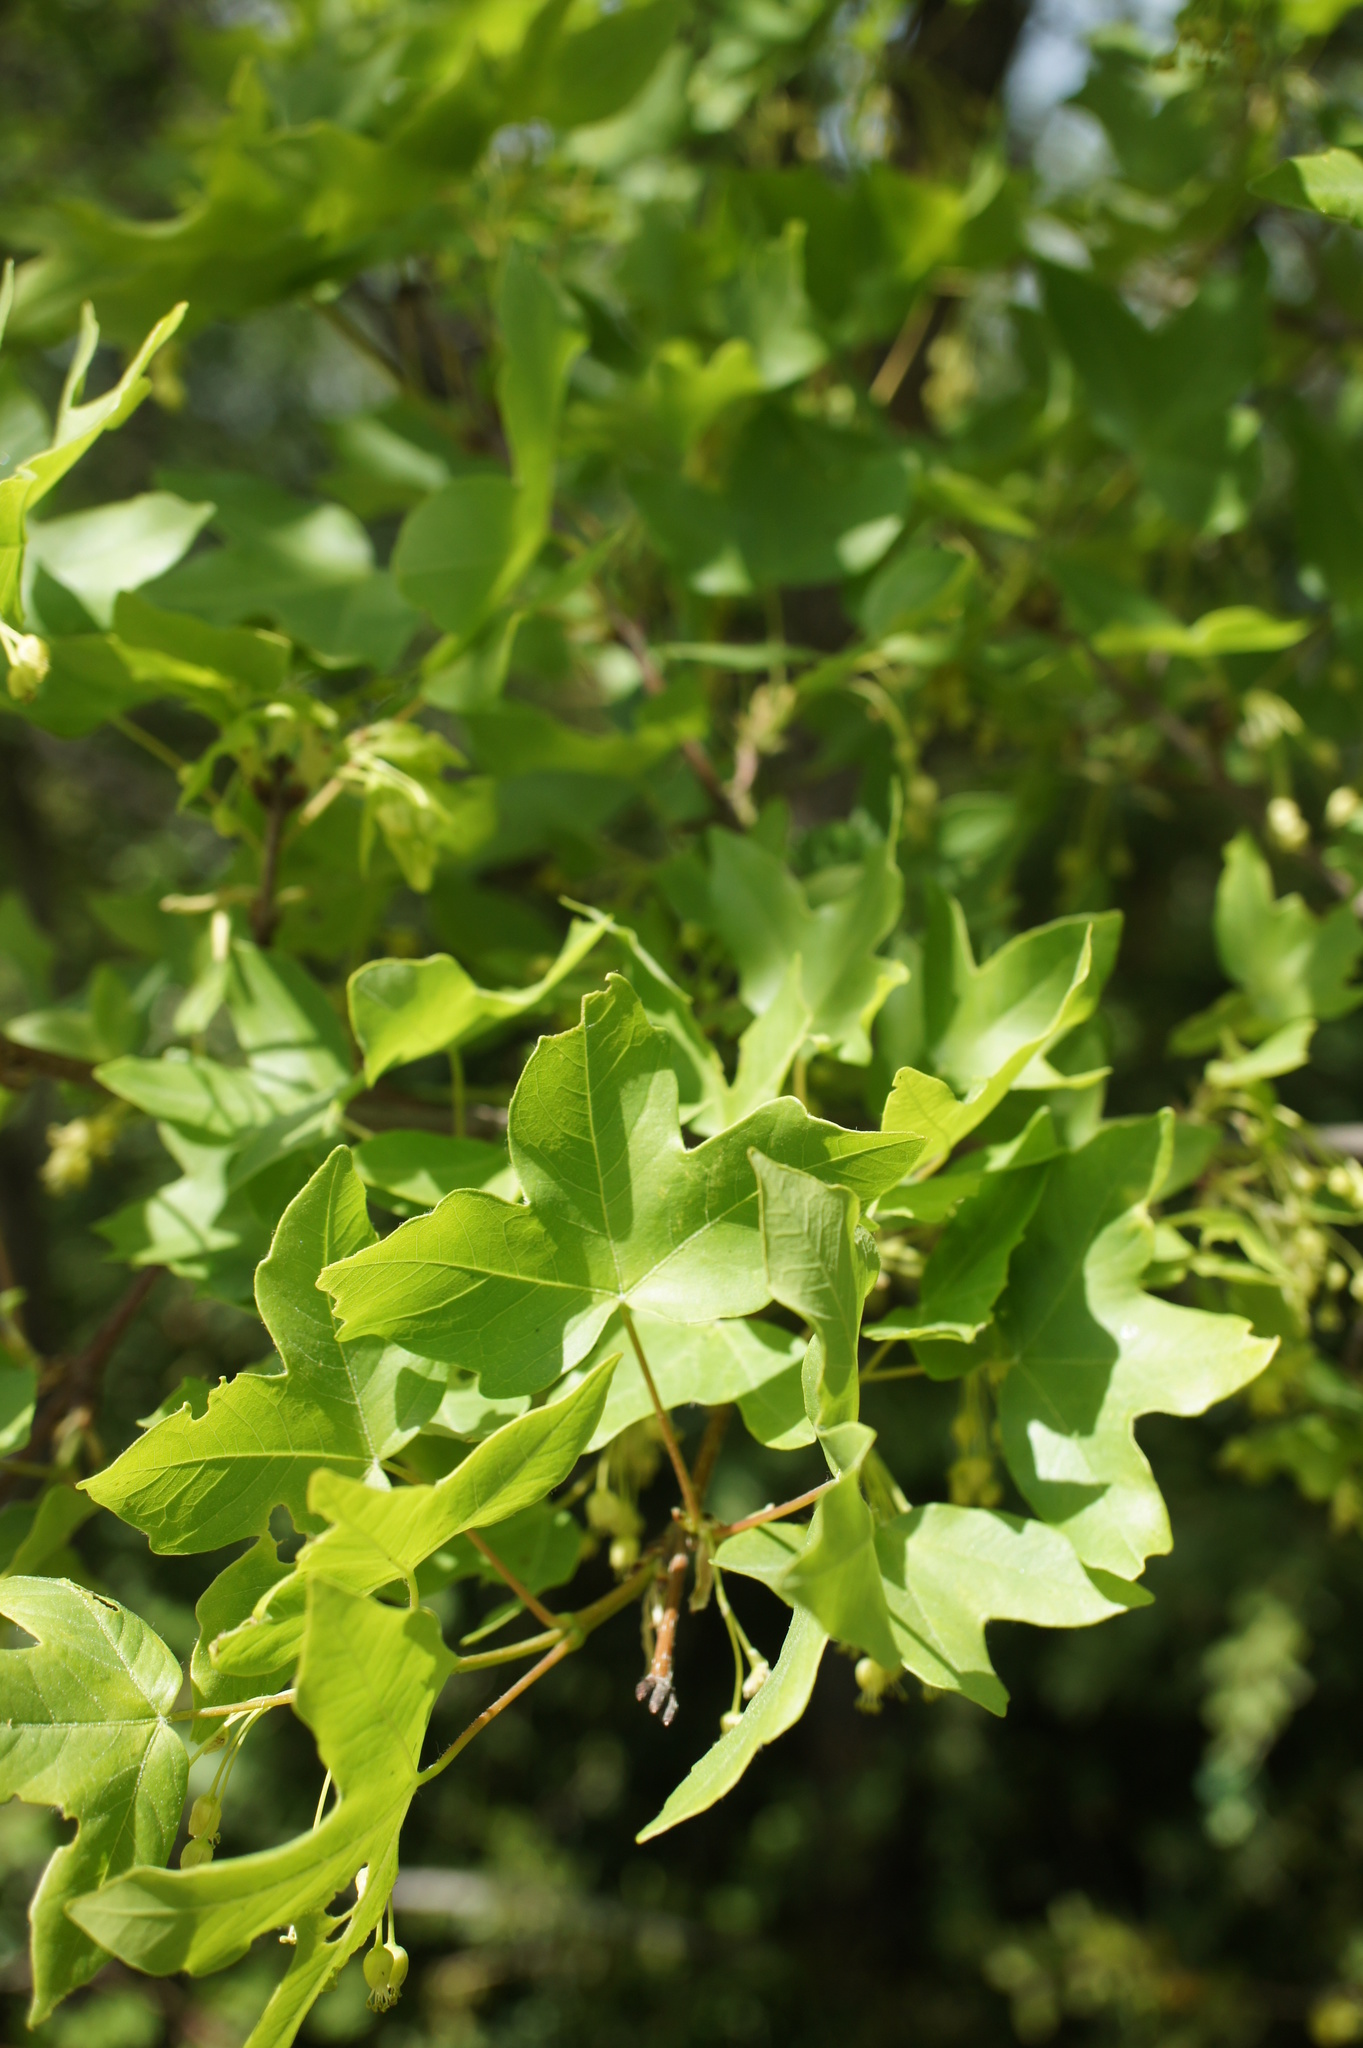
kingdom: Plantae
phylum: Tracheophyta
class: Magnoliopsida
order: Sapindales
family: Sapindaceae
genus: Acer
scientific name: Acer monspessulanum
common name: Montpellier maple
